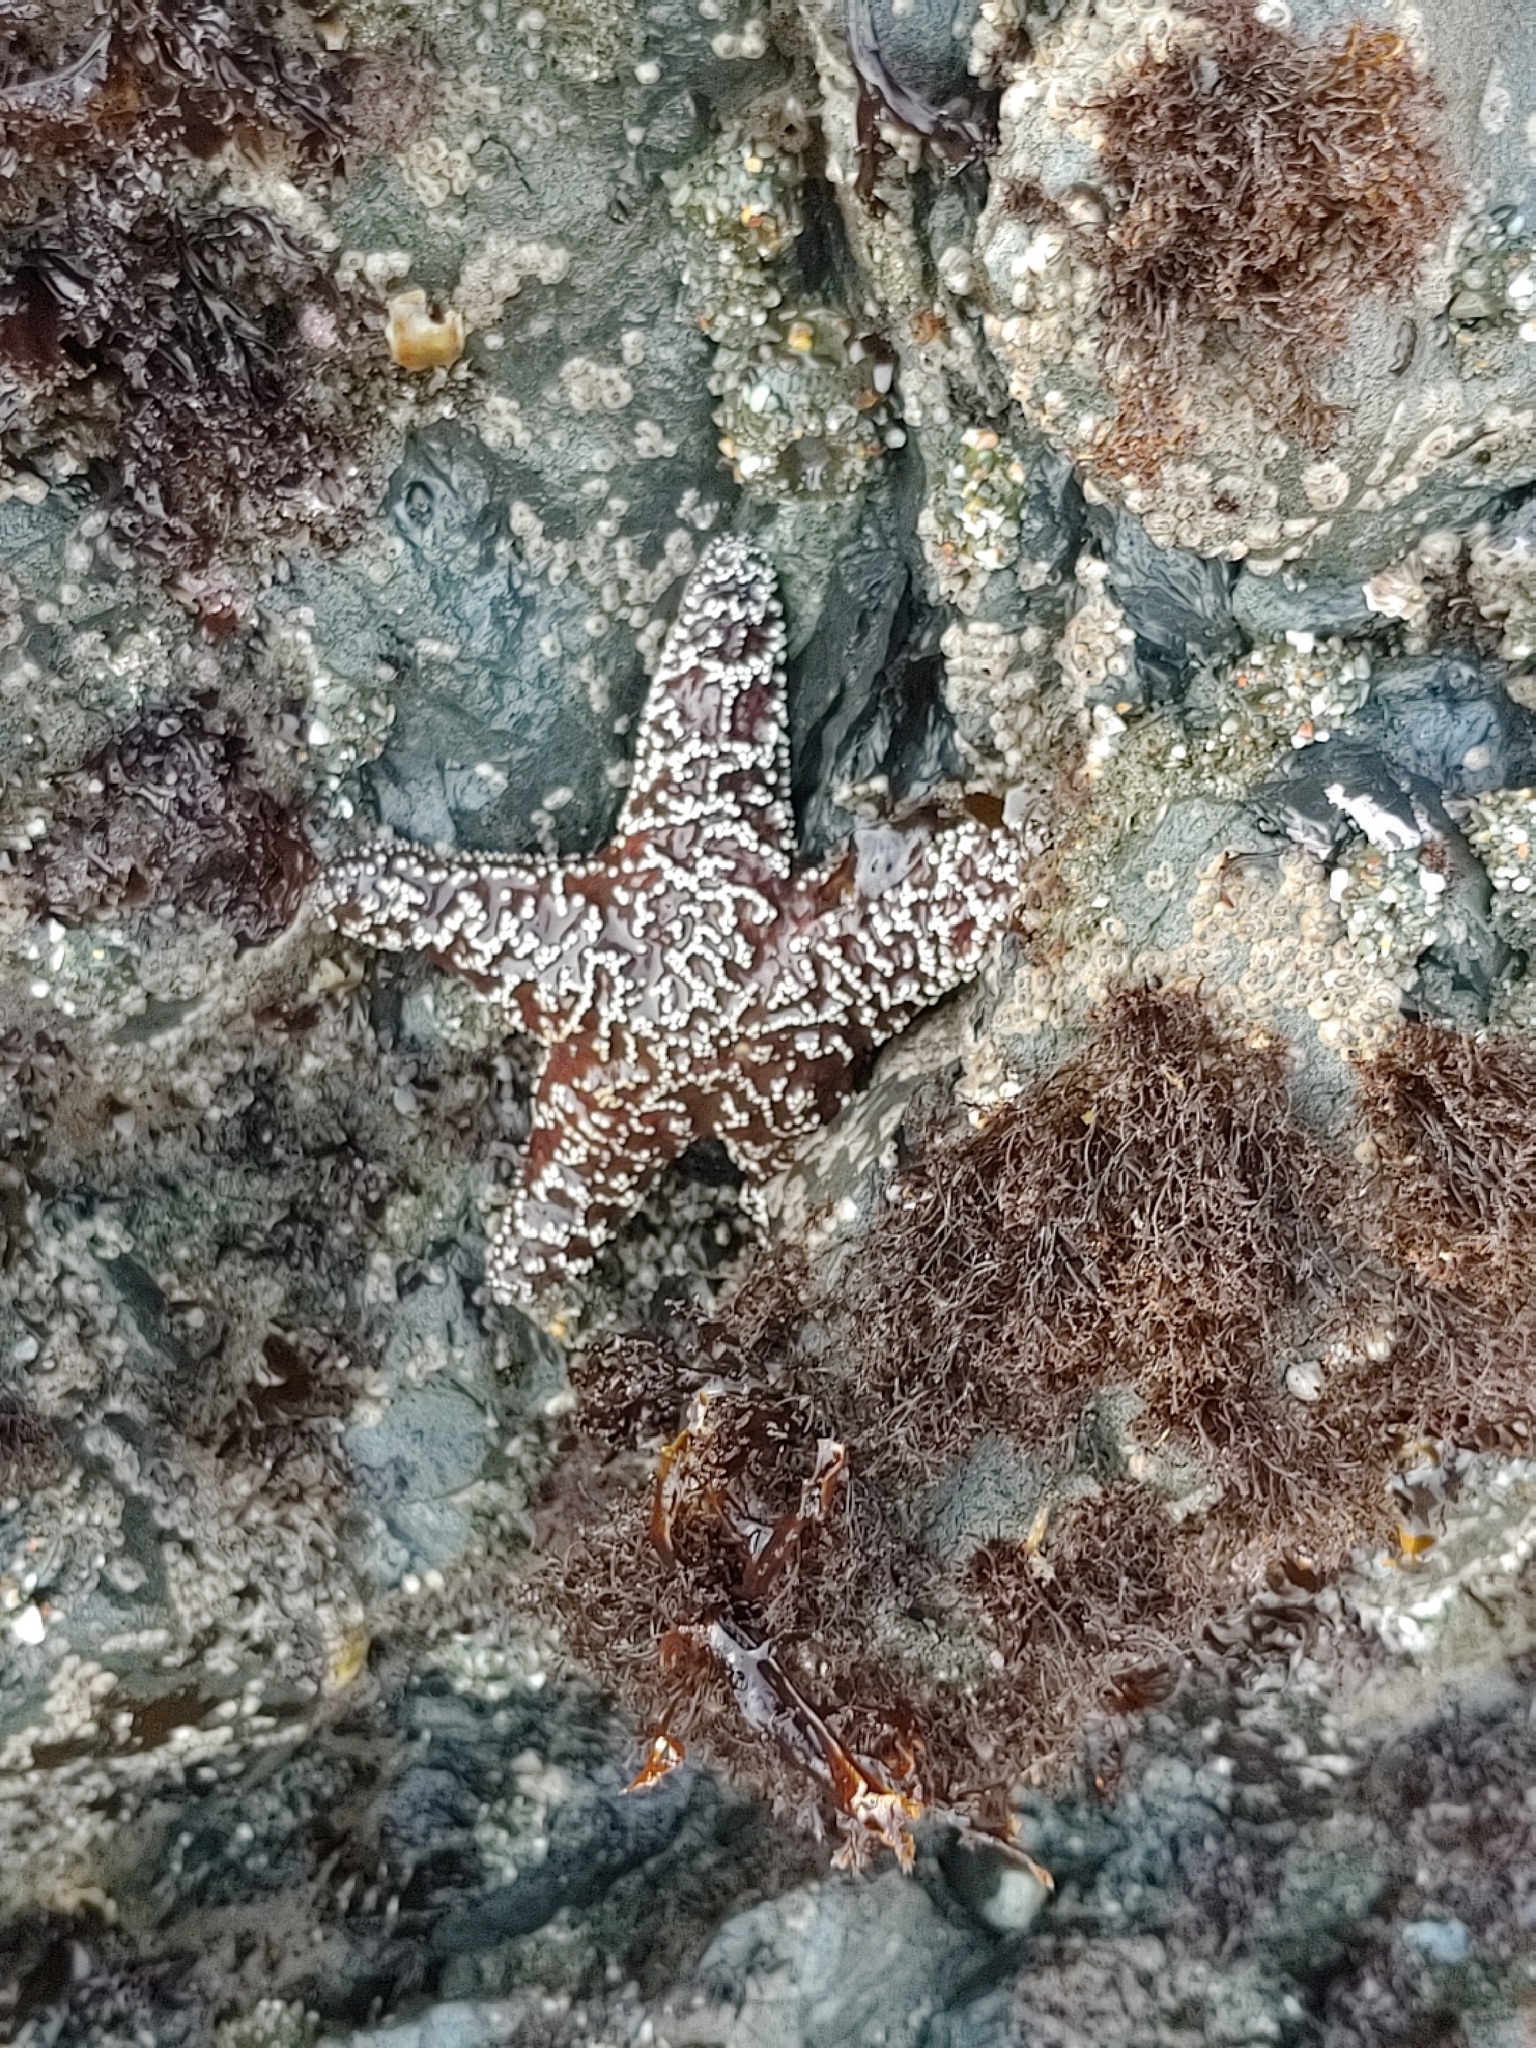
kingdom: Animalia
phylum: Echinodermata
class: Asteroidea
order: Forcipulatida
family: Asteriidae
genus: Pisaster
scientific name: Pisaster ochraceus
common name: Ochre stars
